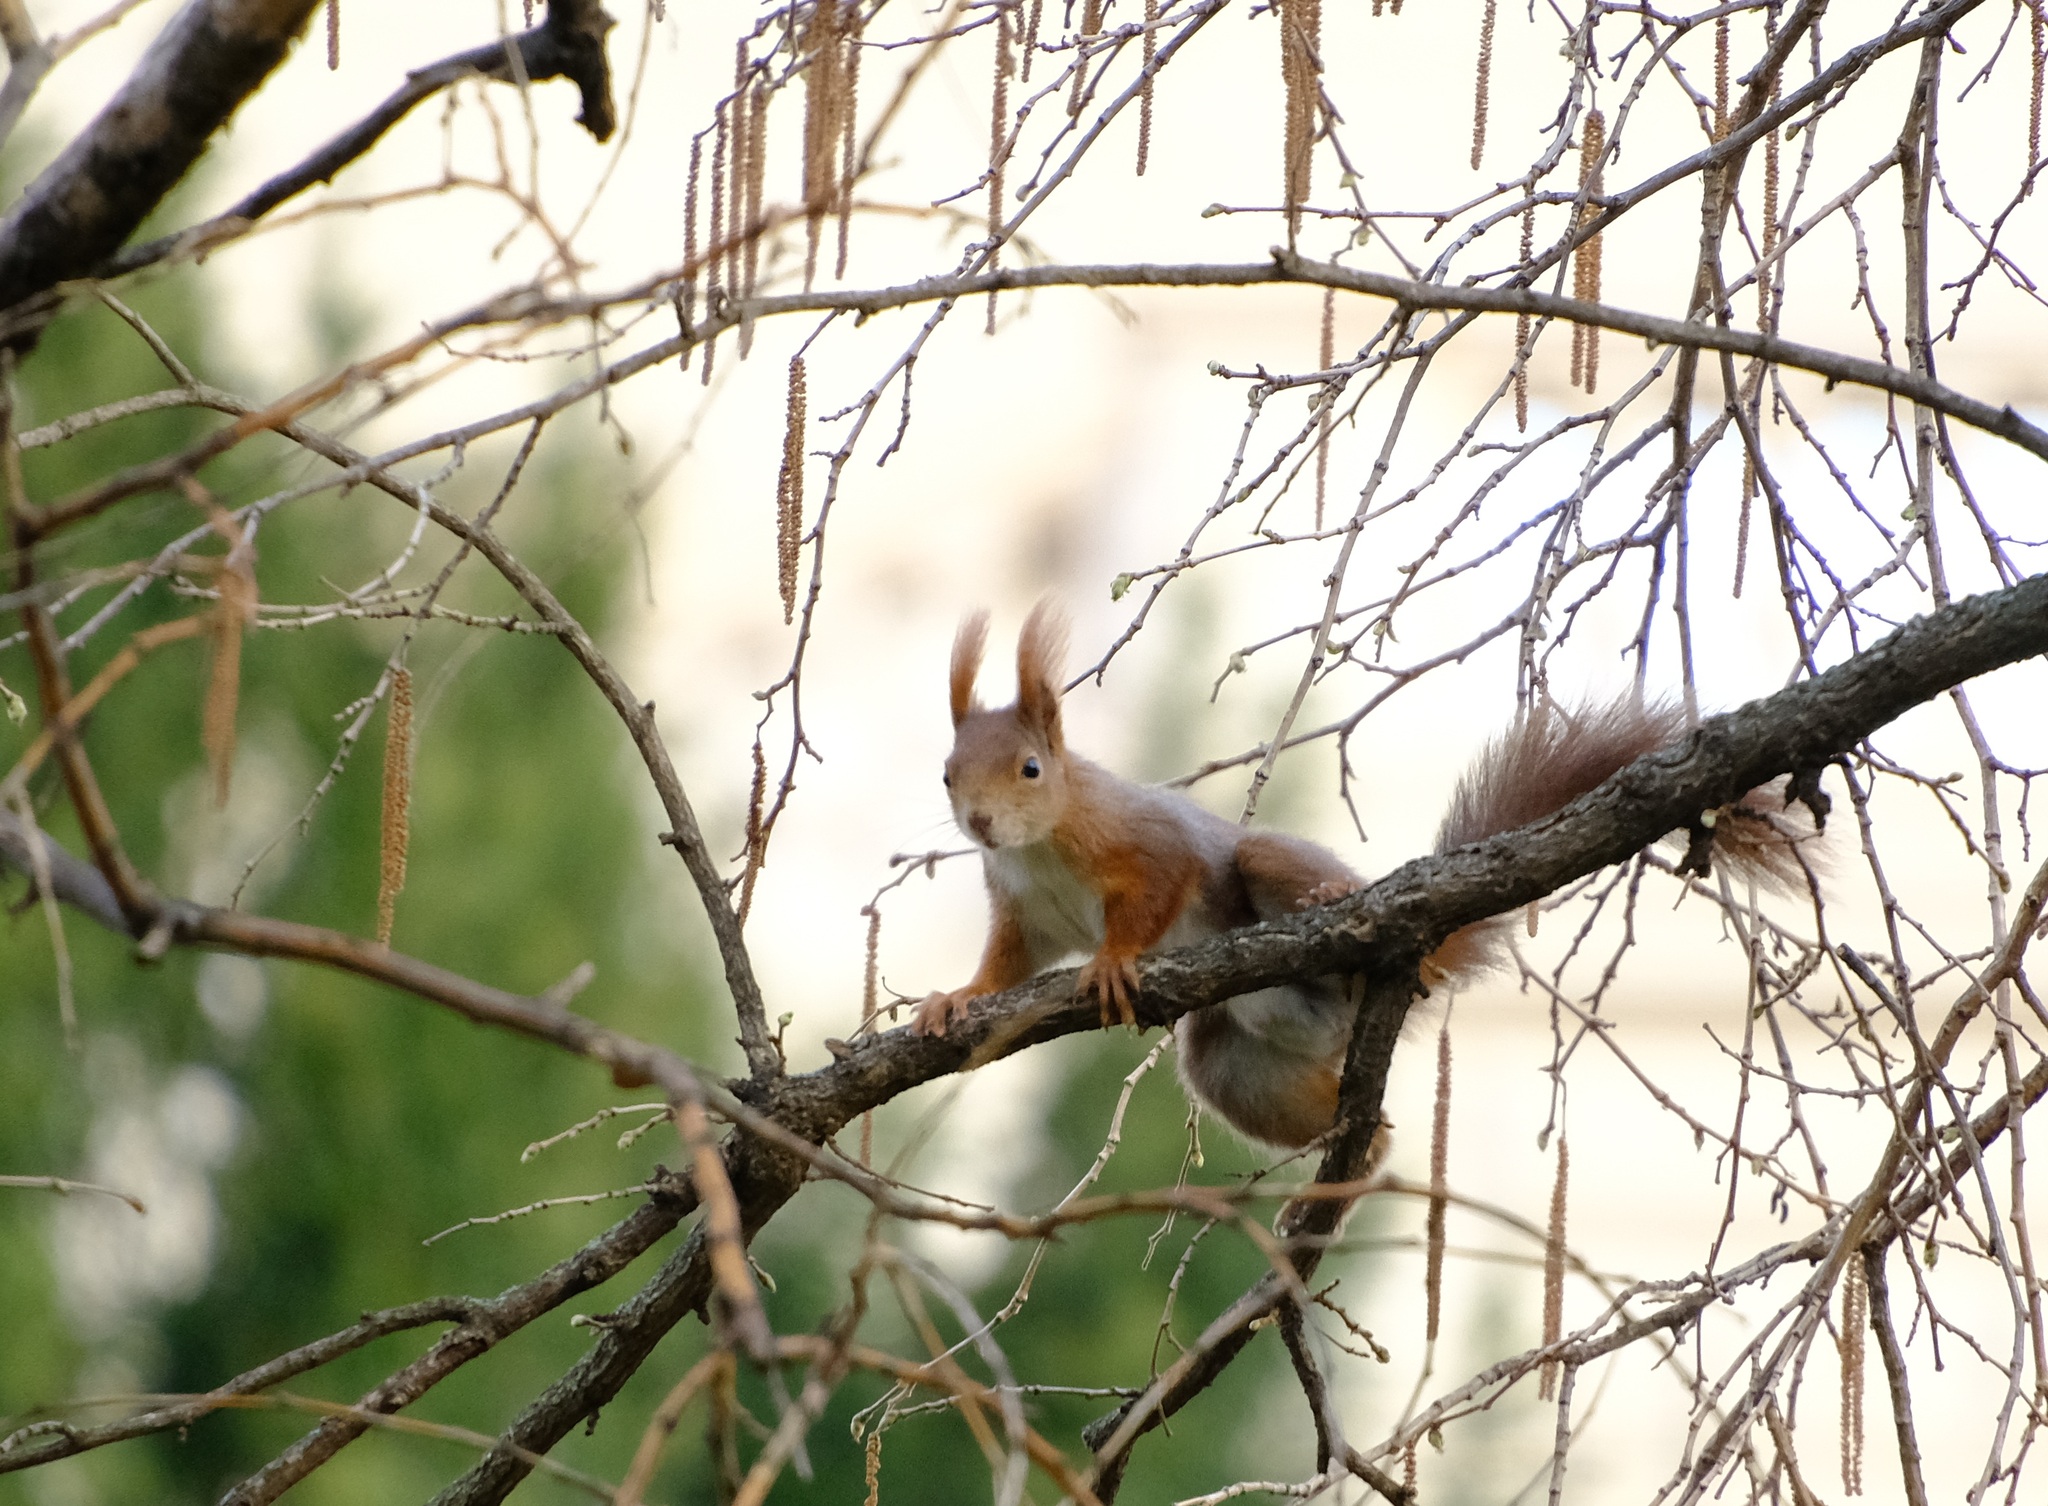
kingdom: Animalia
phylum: Chordata
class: Mammalia
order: Rodentia
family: Sciuridae
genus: Sciurus
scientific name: Sciurus vulgaris
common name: Eurasian red squirrel
